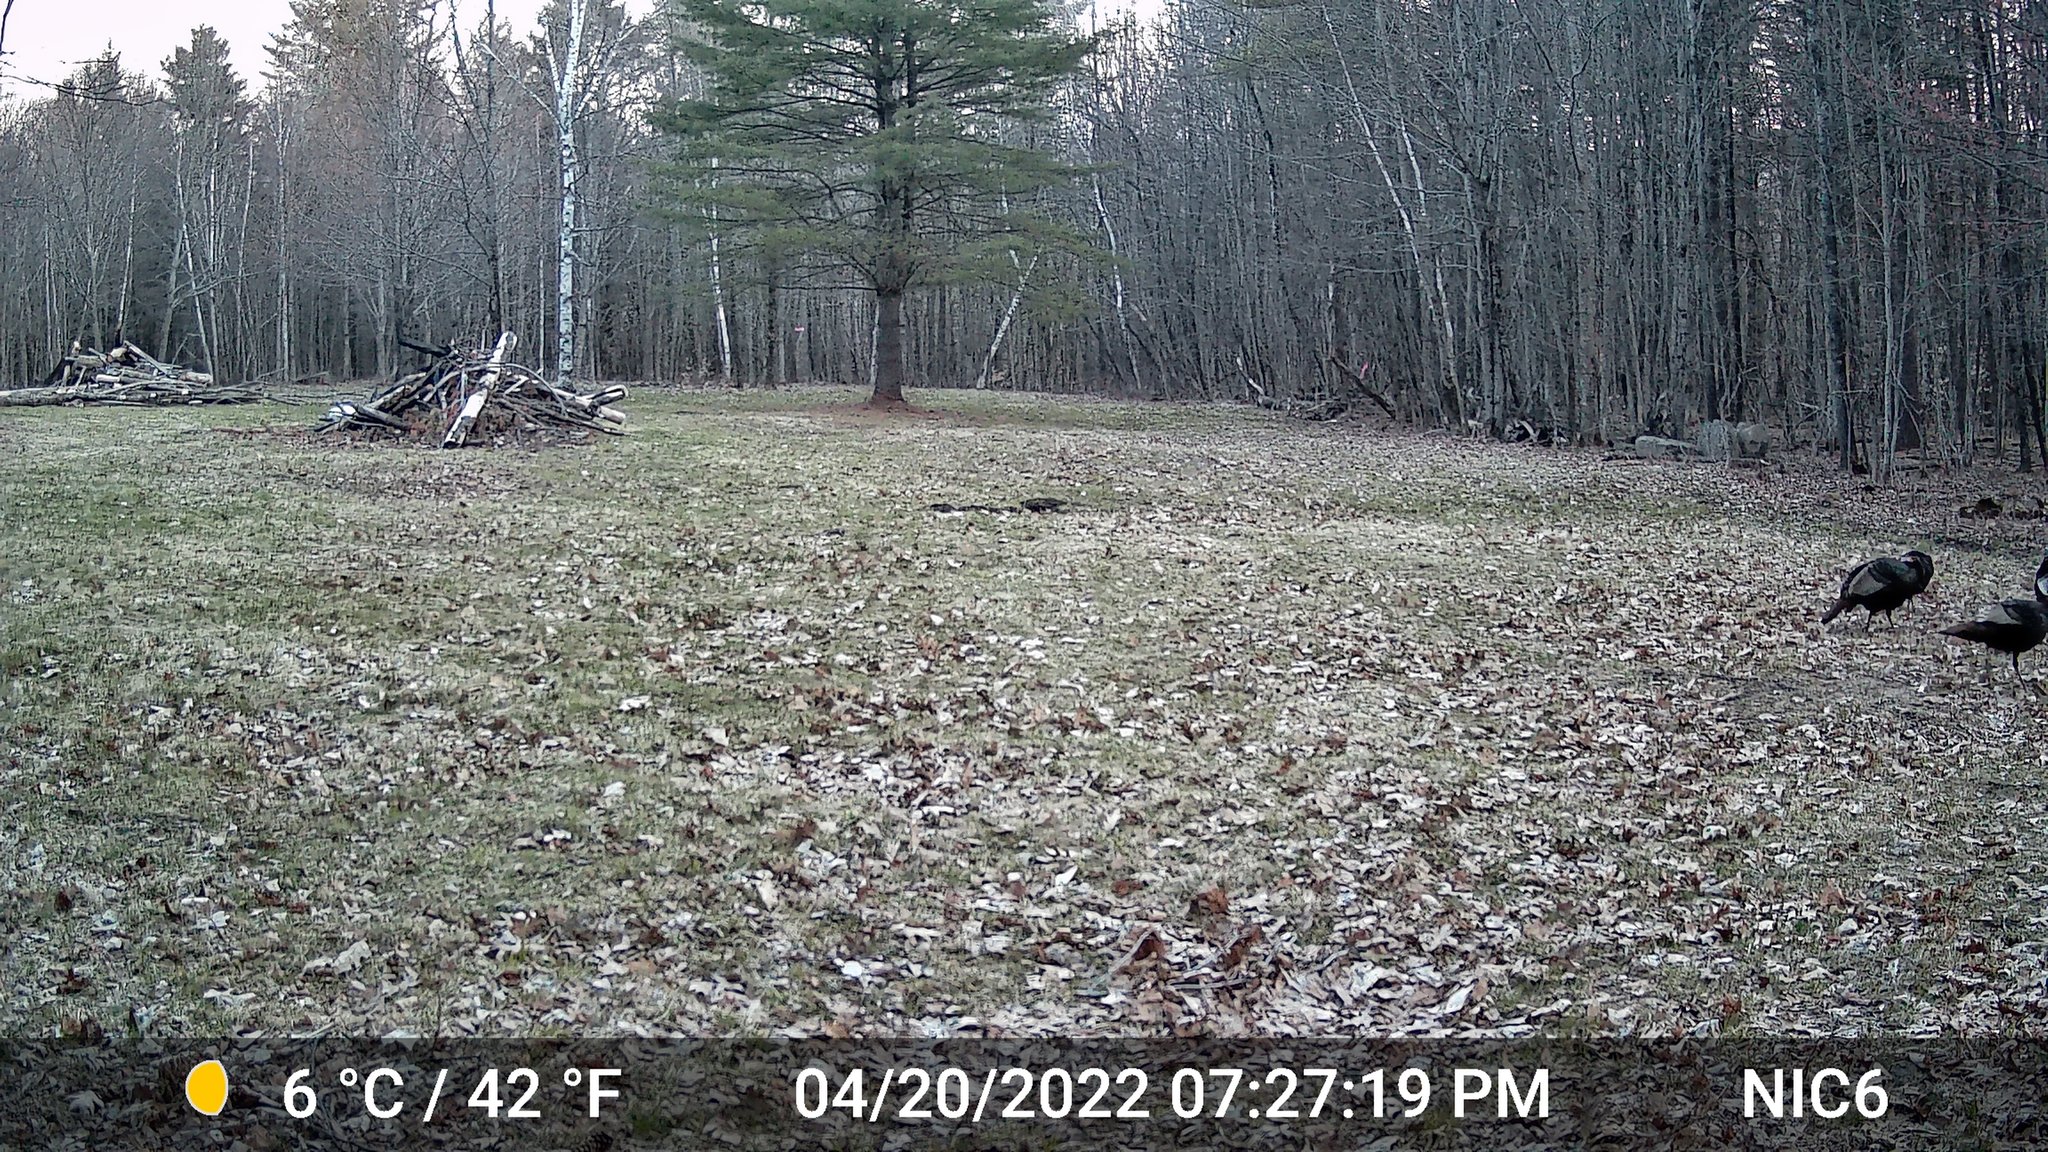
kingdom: Animalia
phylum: Chordata
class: Aves
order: Galliformes
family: Phasianidae
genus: Meleagris
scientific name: Meleagris gallopavo
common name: Wild turkey
